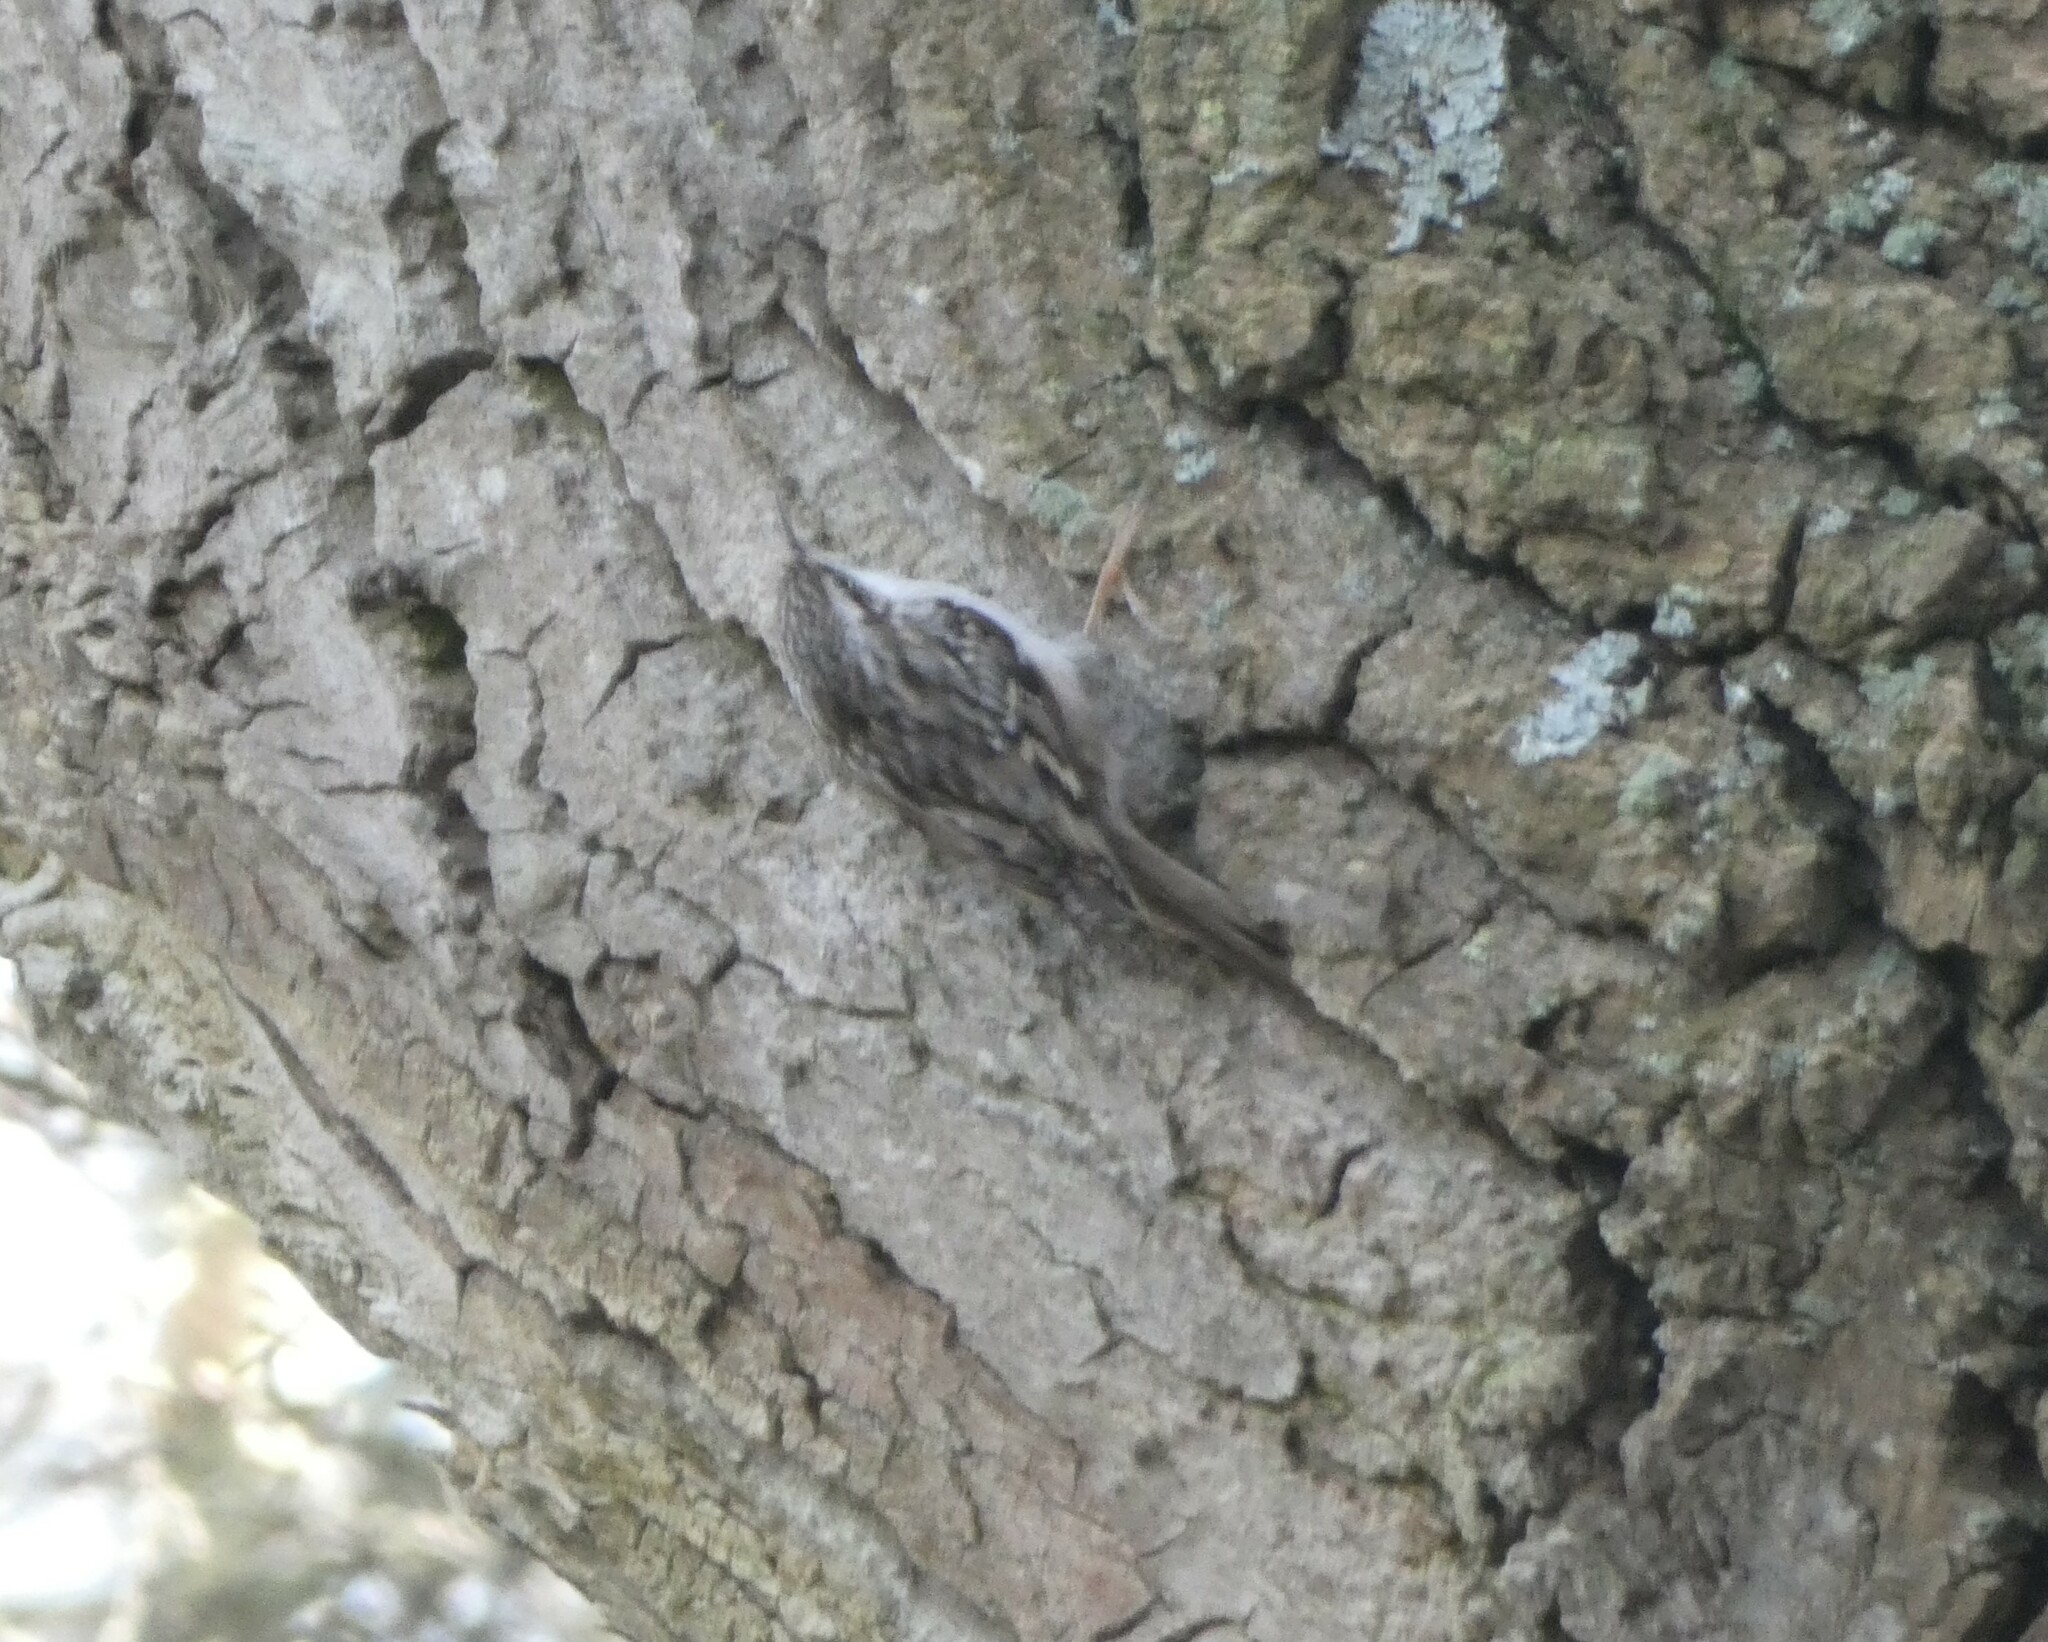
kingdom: Animalia
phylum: Chordata
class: Aves
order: Passeriformes
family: Certhiidae
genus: Certhia
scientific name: Certhia brachydactyla
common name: Short-toed treecreeper
